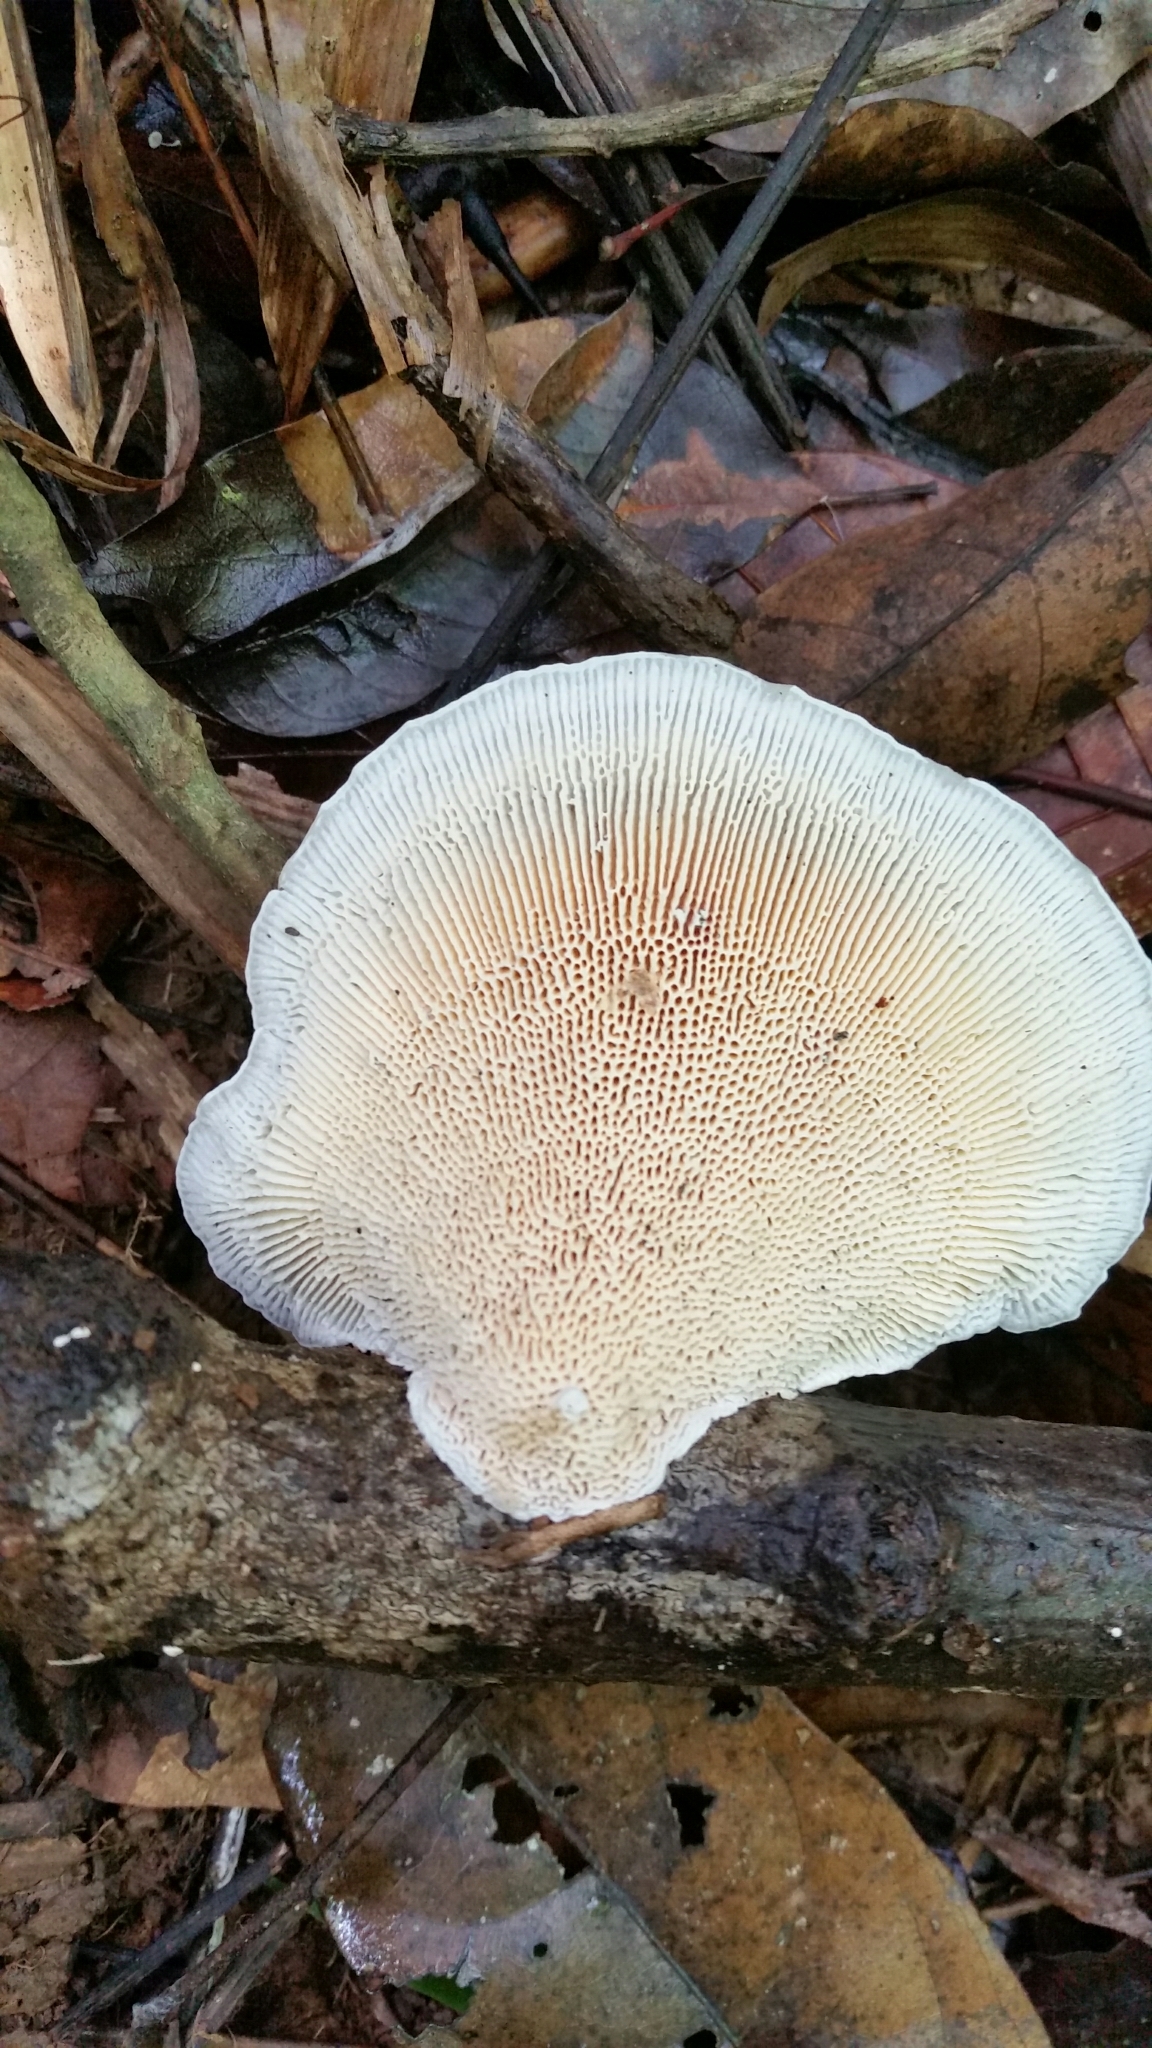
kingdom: Fungi
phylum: Basidiomycota
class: Agaricomycetes
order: Polyporales
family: Polyporaceae
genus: Cubamyces
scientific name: Cubamyces flavidus
